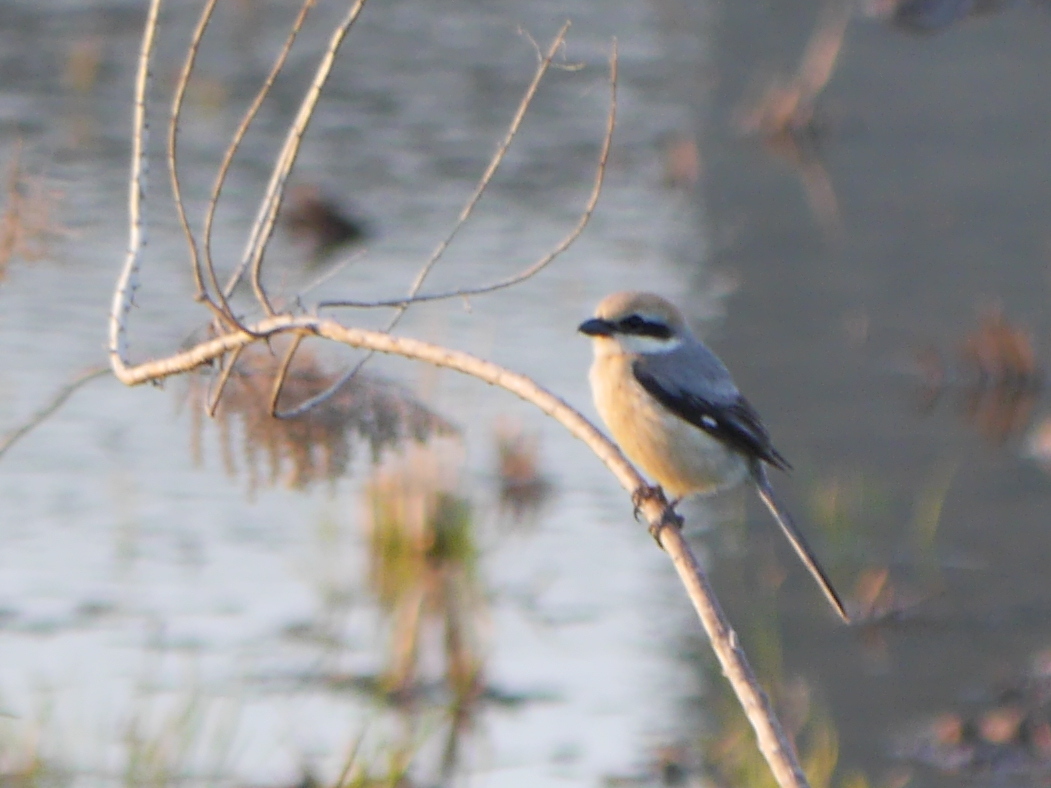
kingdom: Animalia
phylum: Chordata
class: Aves
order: Passeriformes
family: Laniidae
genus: Lanius
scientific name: Lanius bucephalus
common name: Bull-headed shrike
